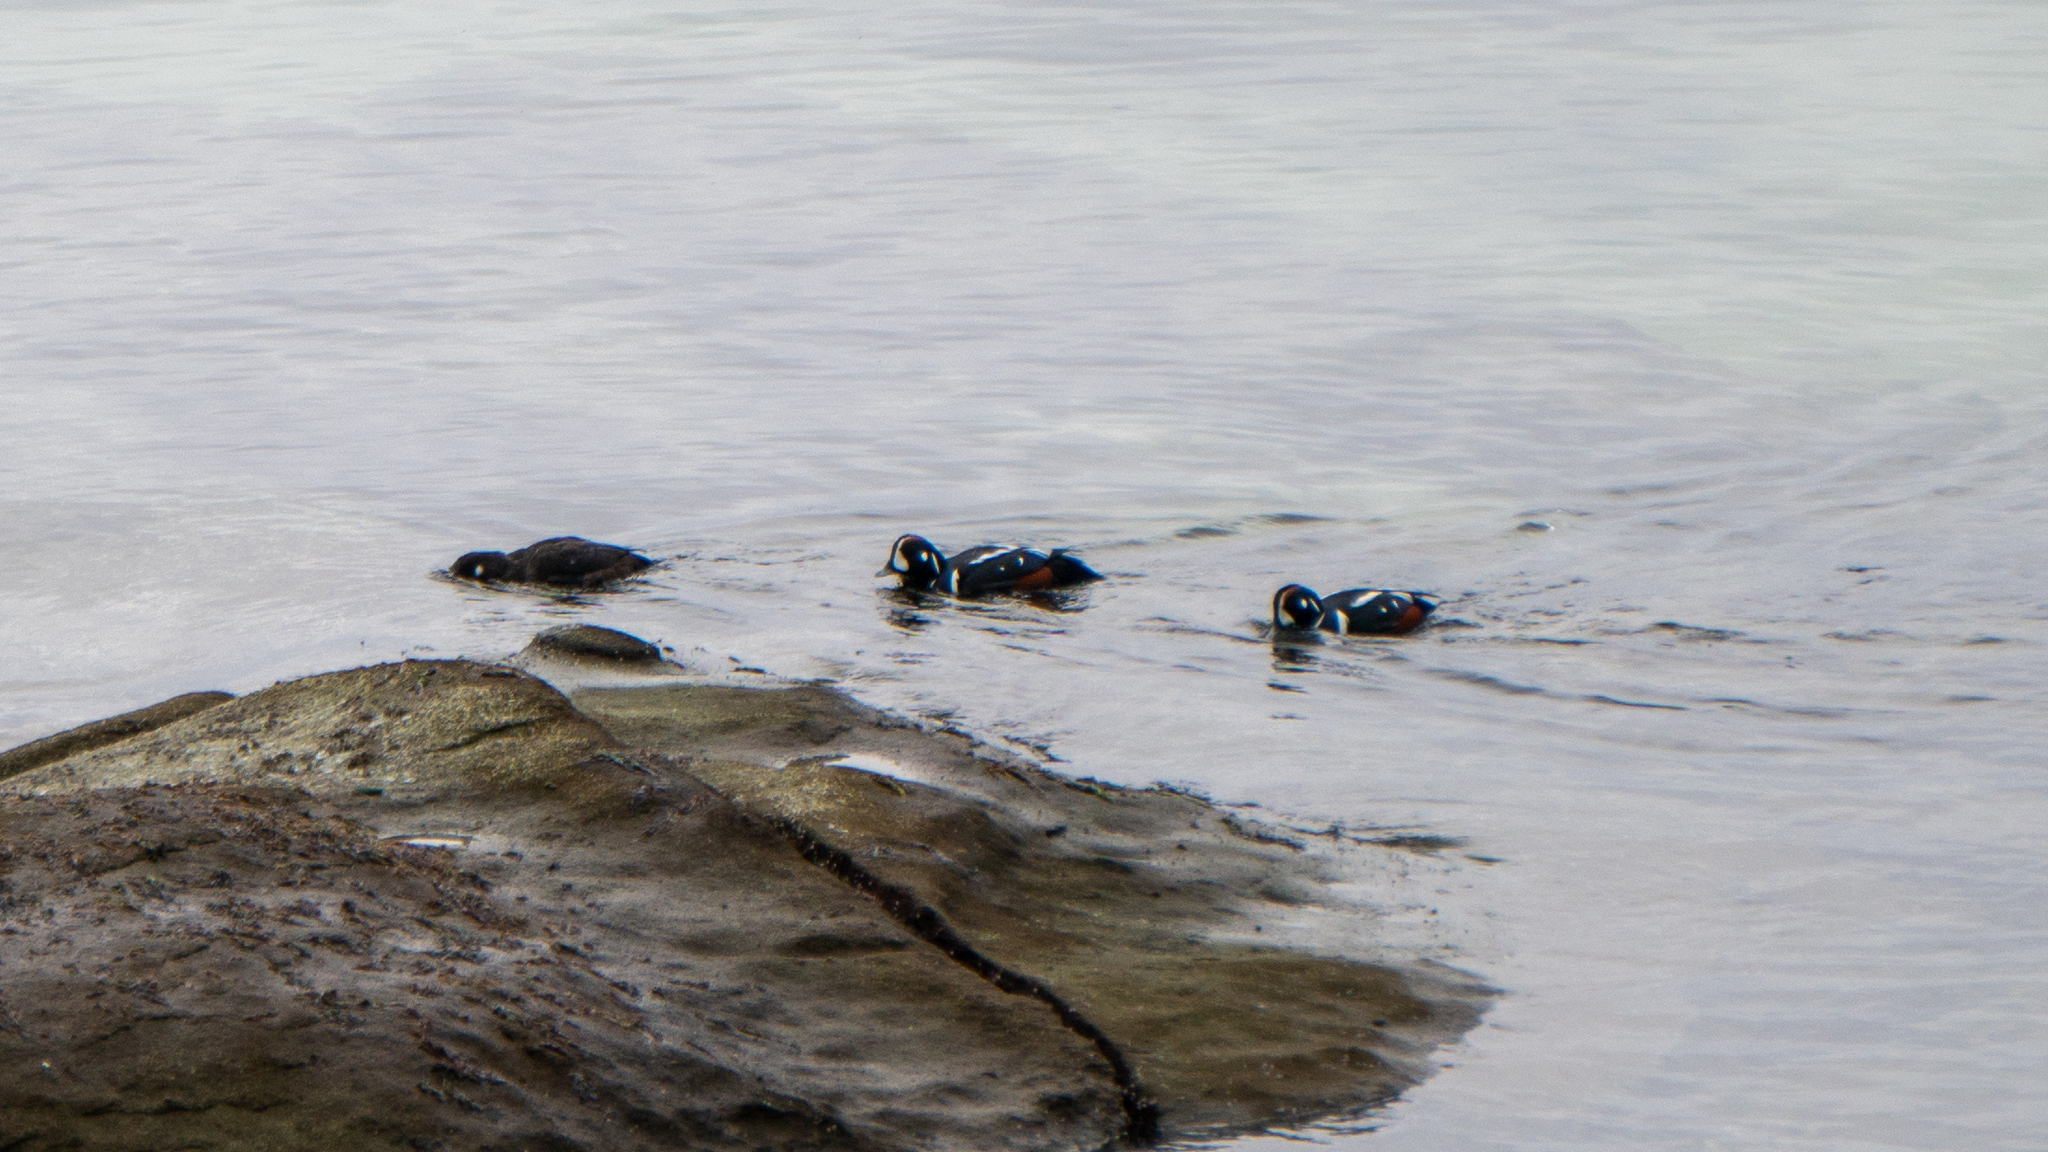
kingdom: Animalia
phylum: Chordata
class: Aves
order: Anseriformes
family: Anatidae
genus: Histrionicus
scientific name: Histrionicus histrionicus
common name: Harlequin duck
